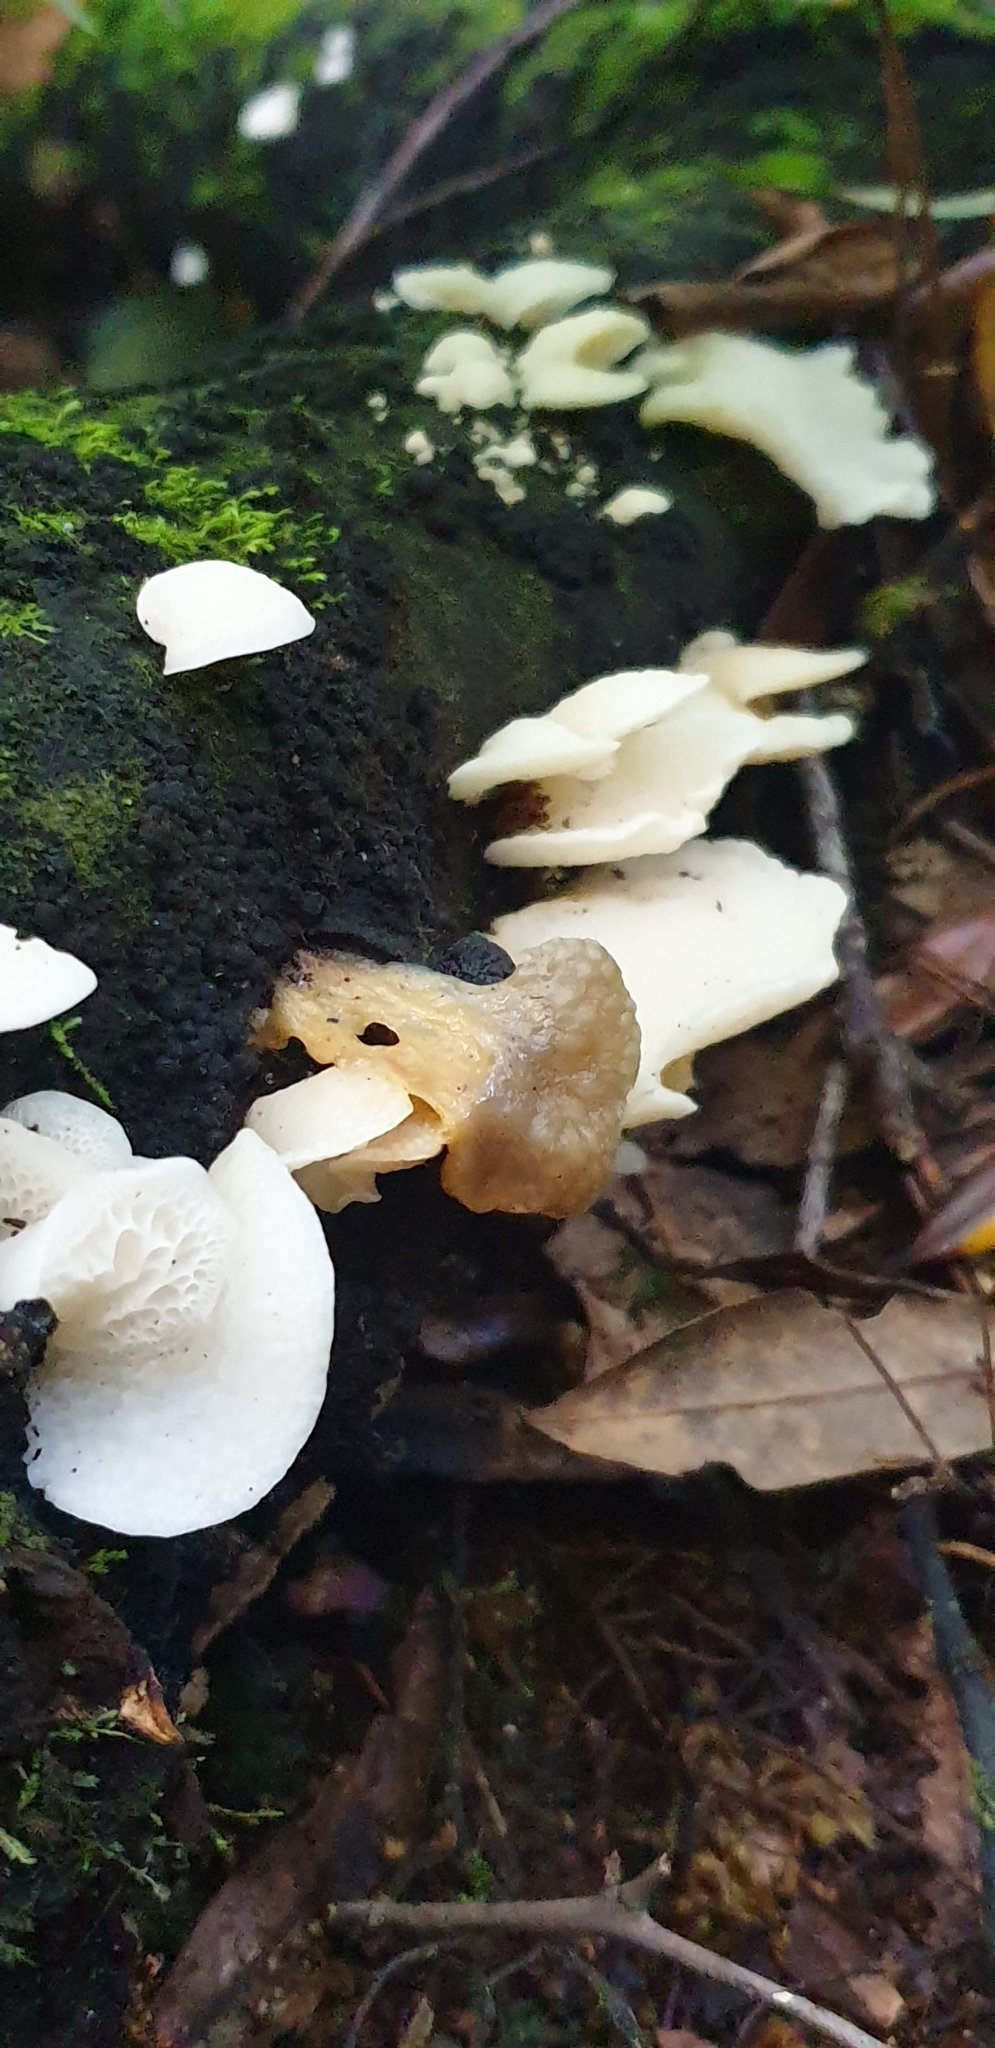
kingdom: Fungi
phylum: Basidiomycota
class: Agaricomycetes
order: Agaricales
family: Mycenaceae
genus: Favolaschia
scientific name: Favolaschia pustulosa
